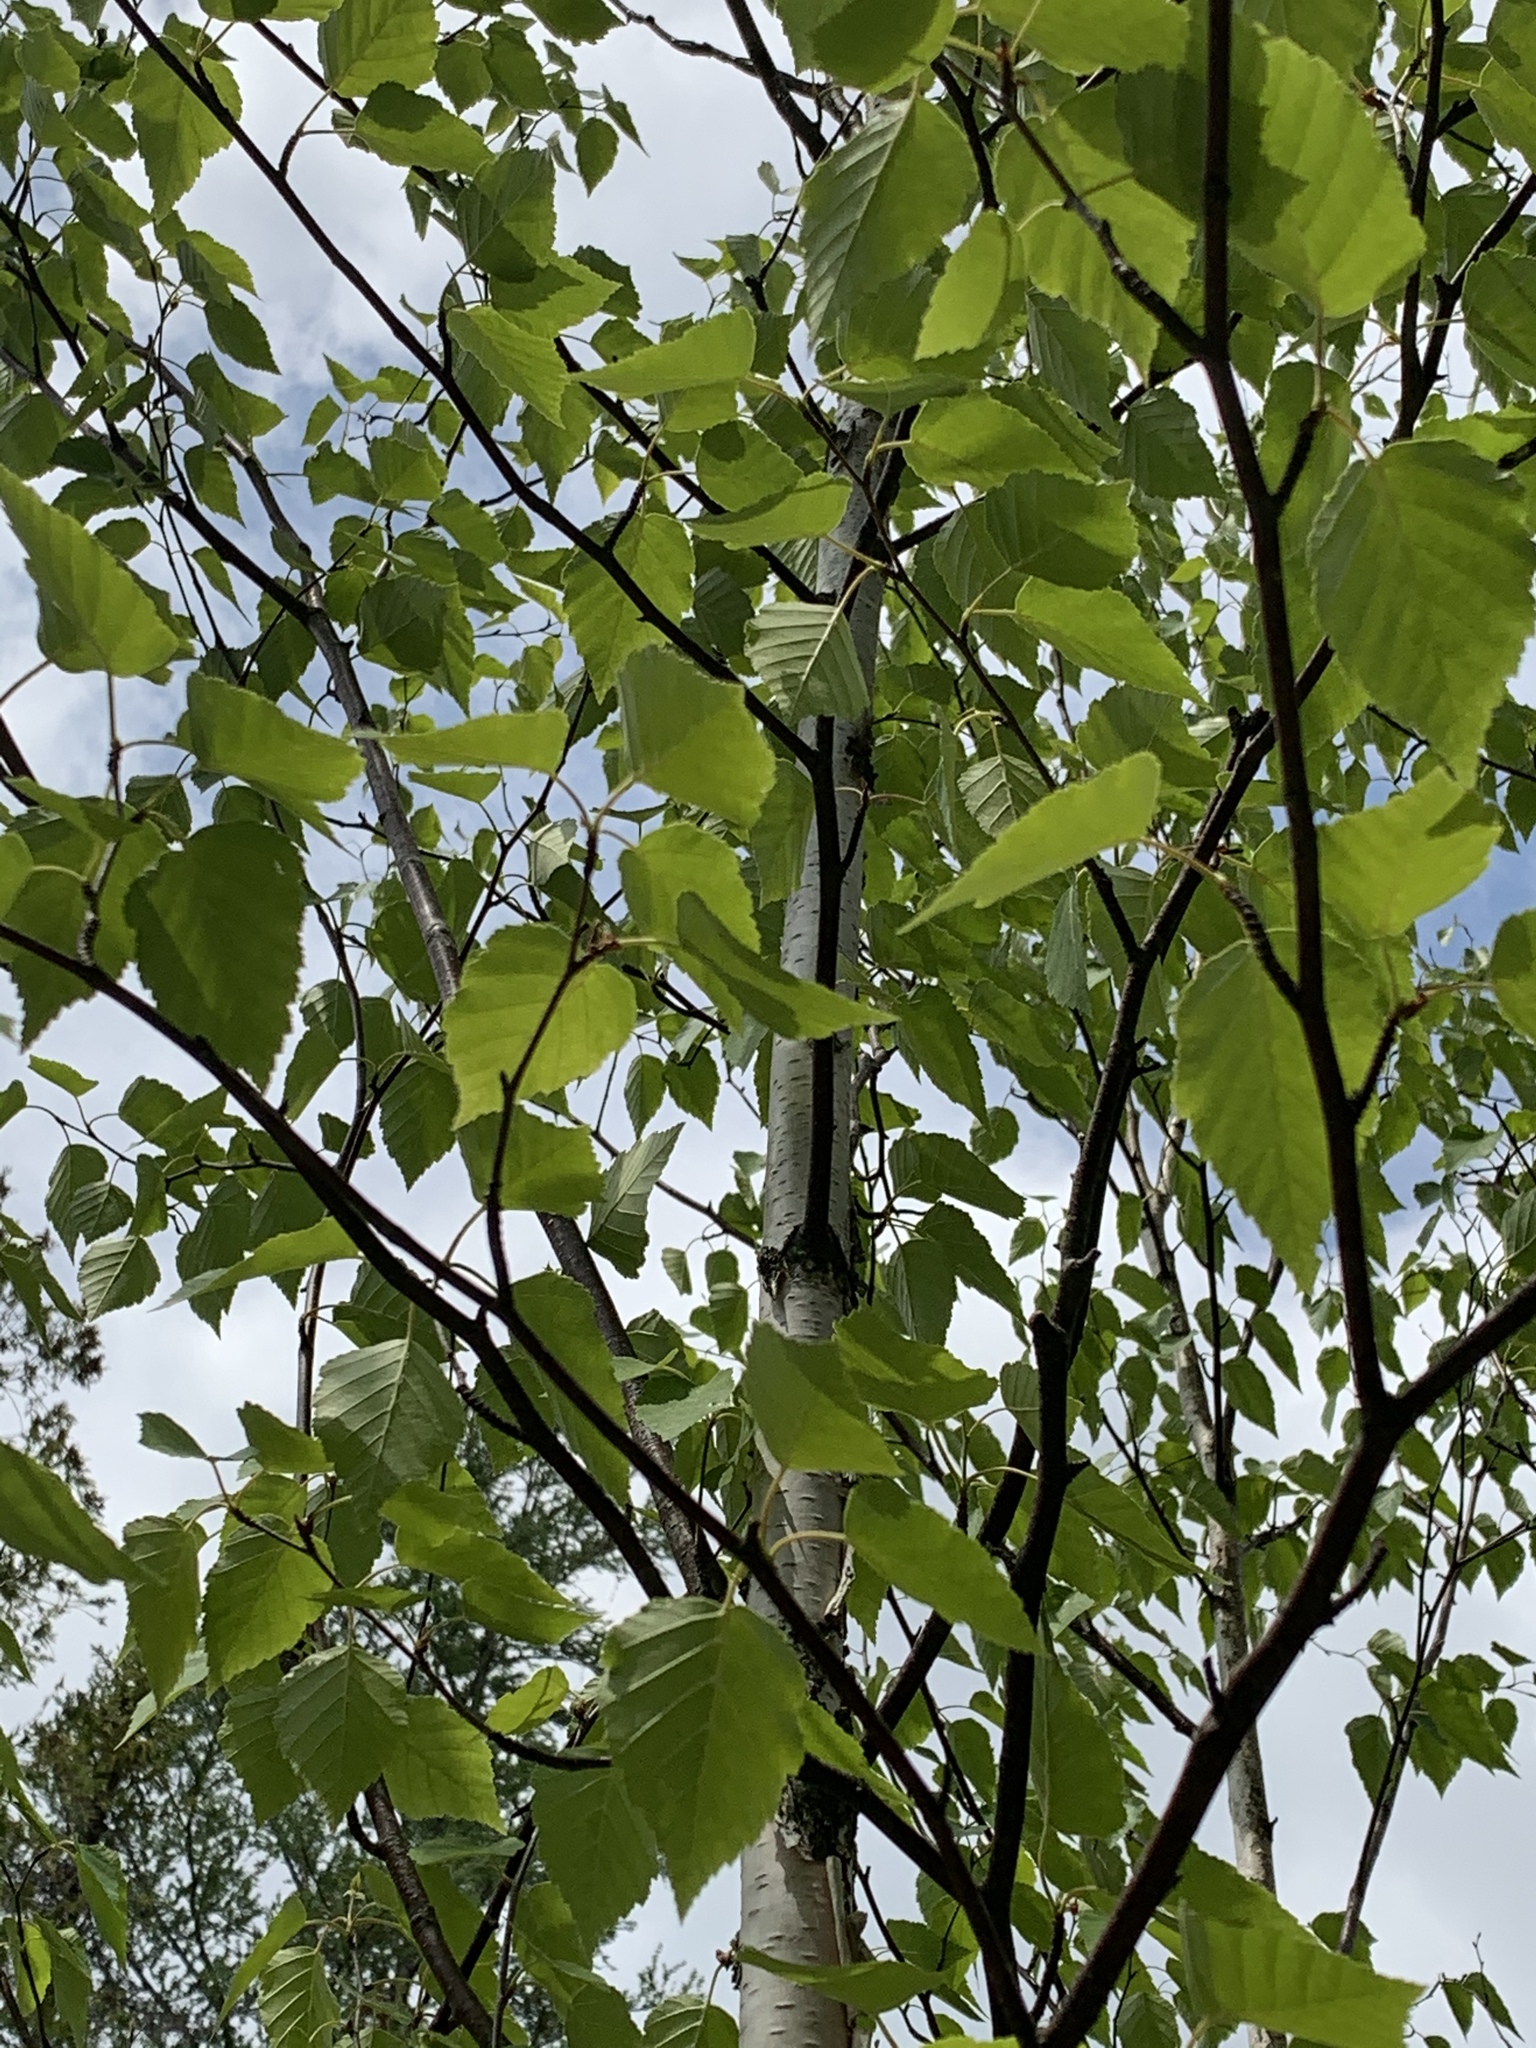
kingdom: Plantae
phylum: Tracheophyta
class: Magnoliopsida
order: Fagales
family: Betulaceae
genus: Betula
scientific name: Betula papyrifera
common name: Paper birch
